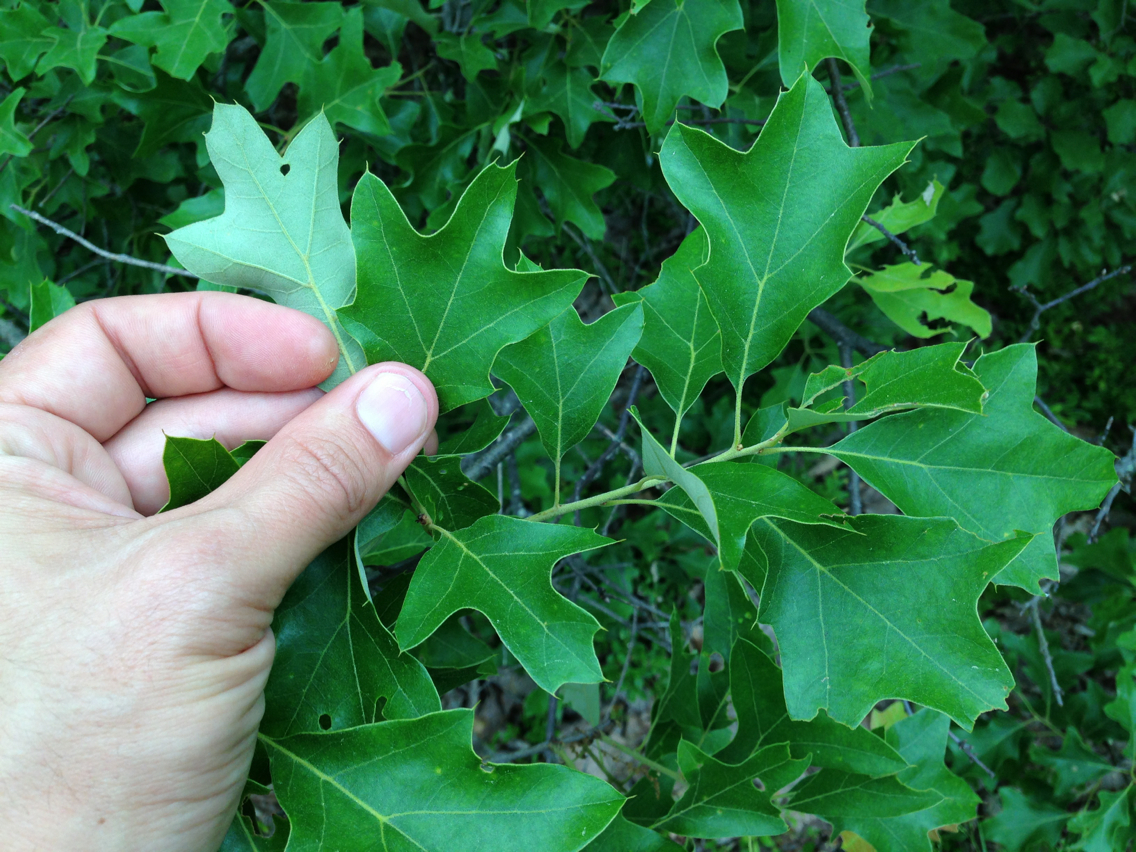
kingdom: Plantae
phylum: Tracheophyta
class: Magnoliopsida
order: Fagales
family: Fagaceae
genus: Quercus
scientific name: Quercus ilicifolia
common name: Bear oak
